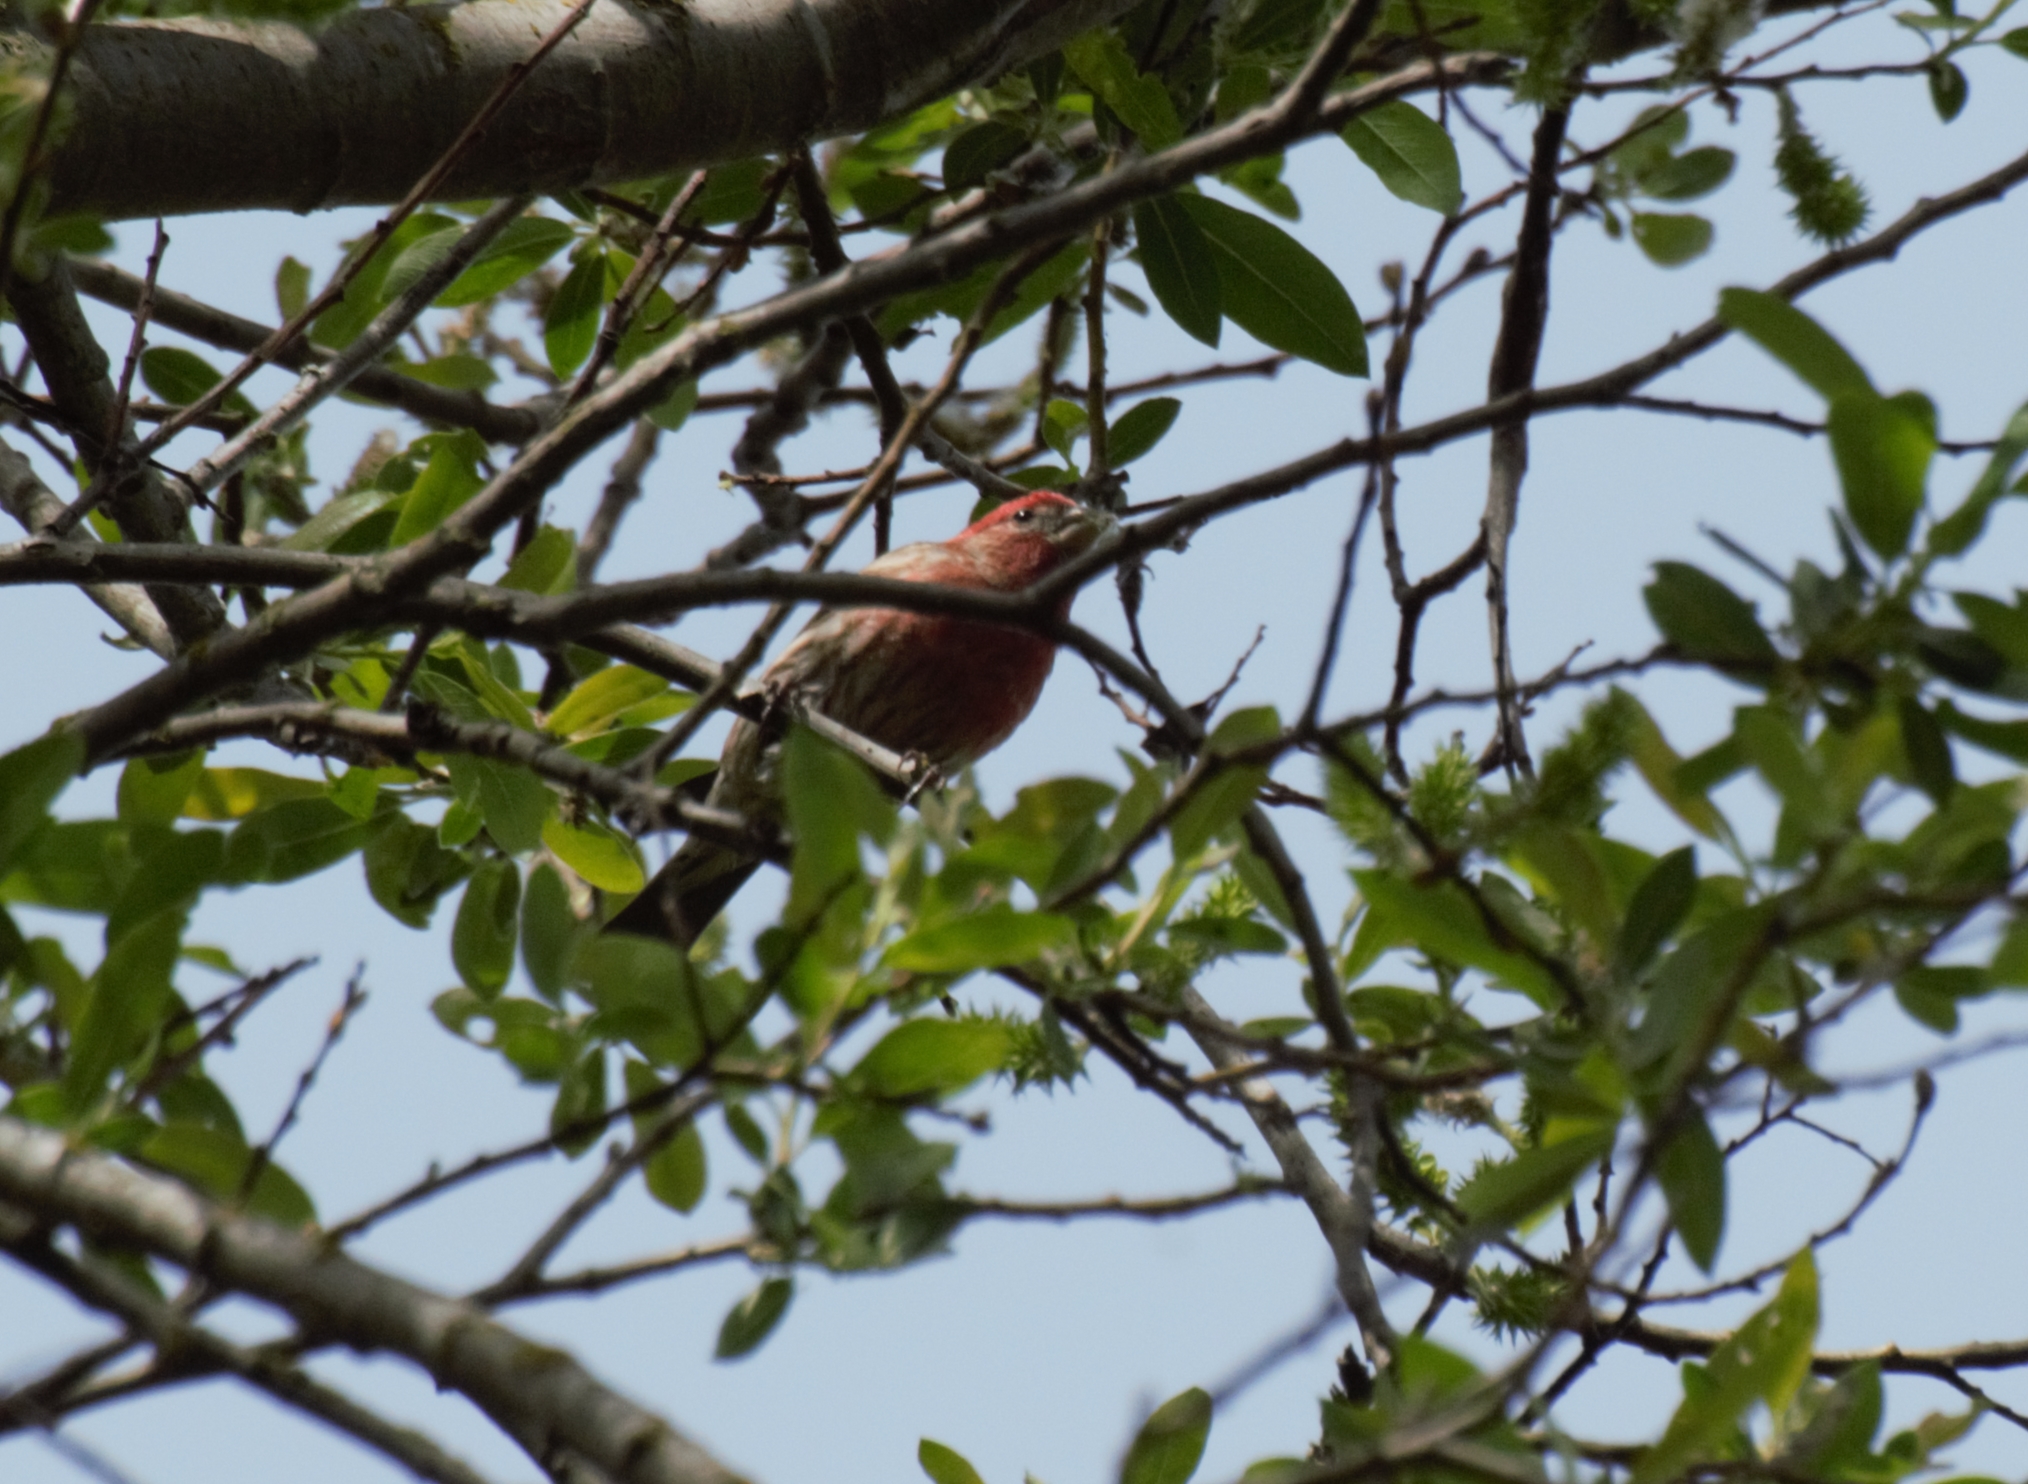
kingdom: Animalia
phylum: Chordata
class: Aves
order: Passeriformes
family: Fringillidae
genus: Haemorhous
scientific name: Haemorhous mexicanus
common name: House finch
